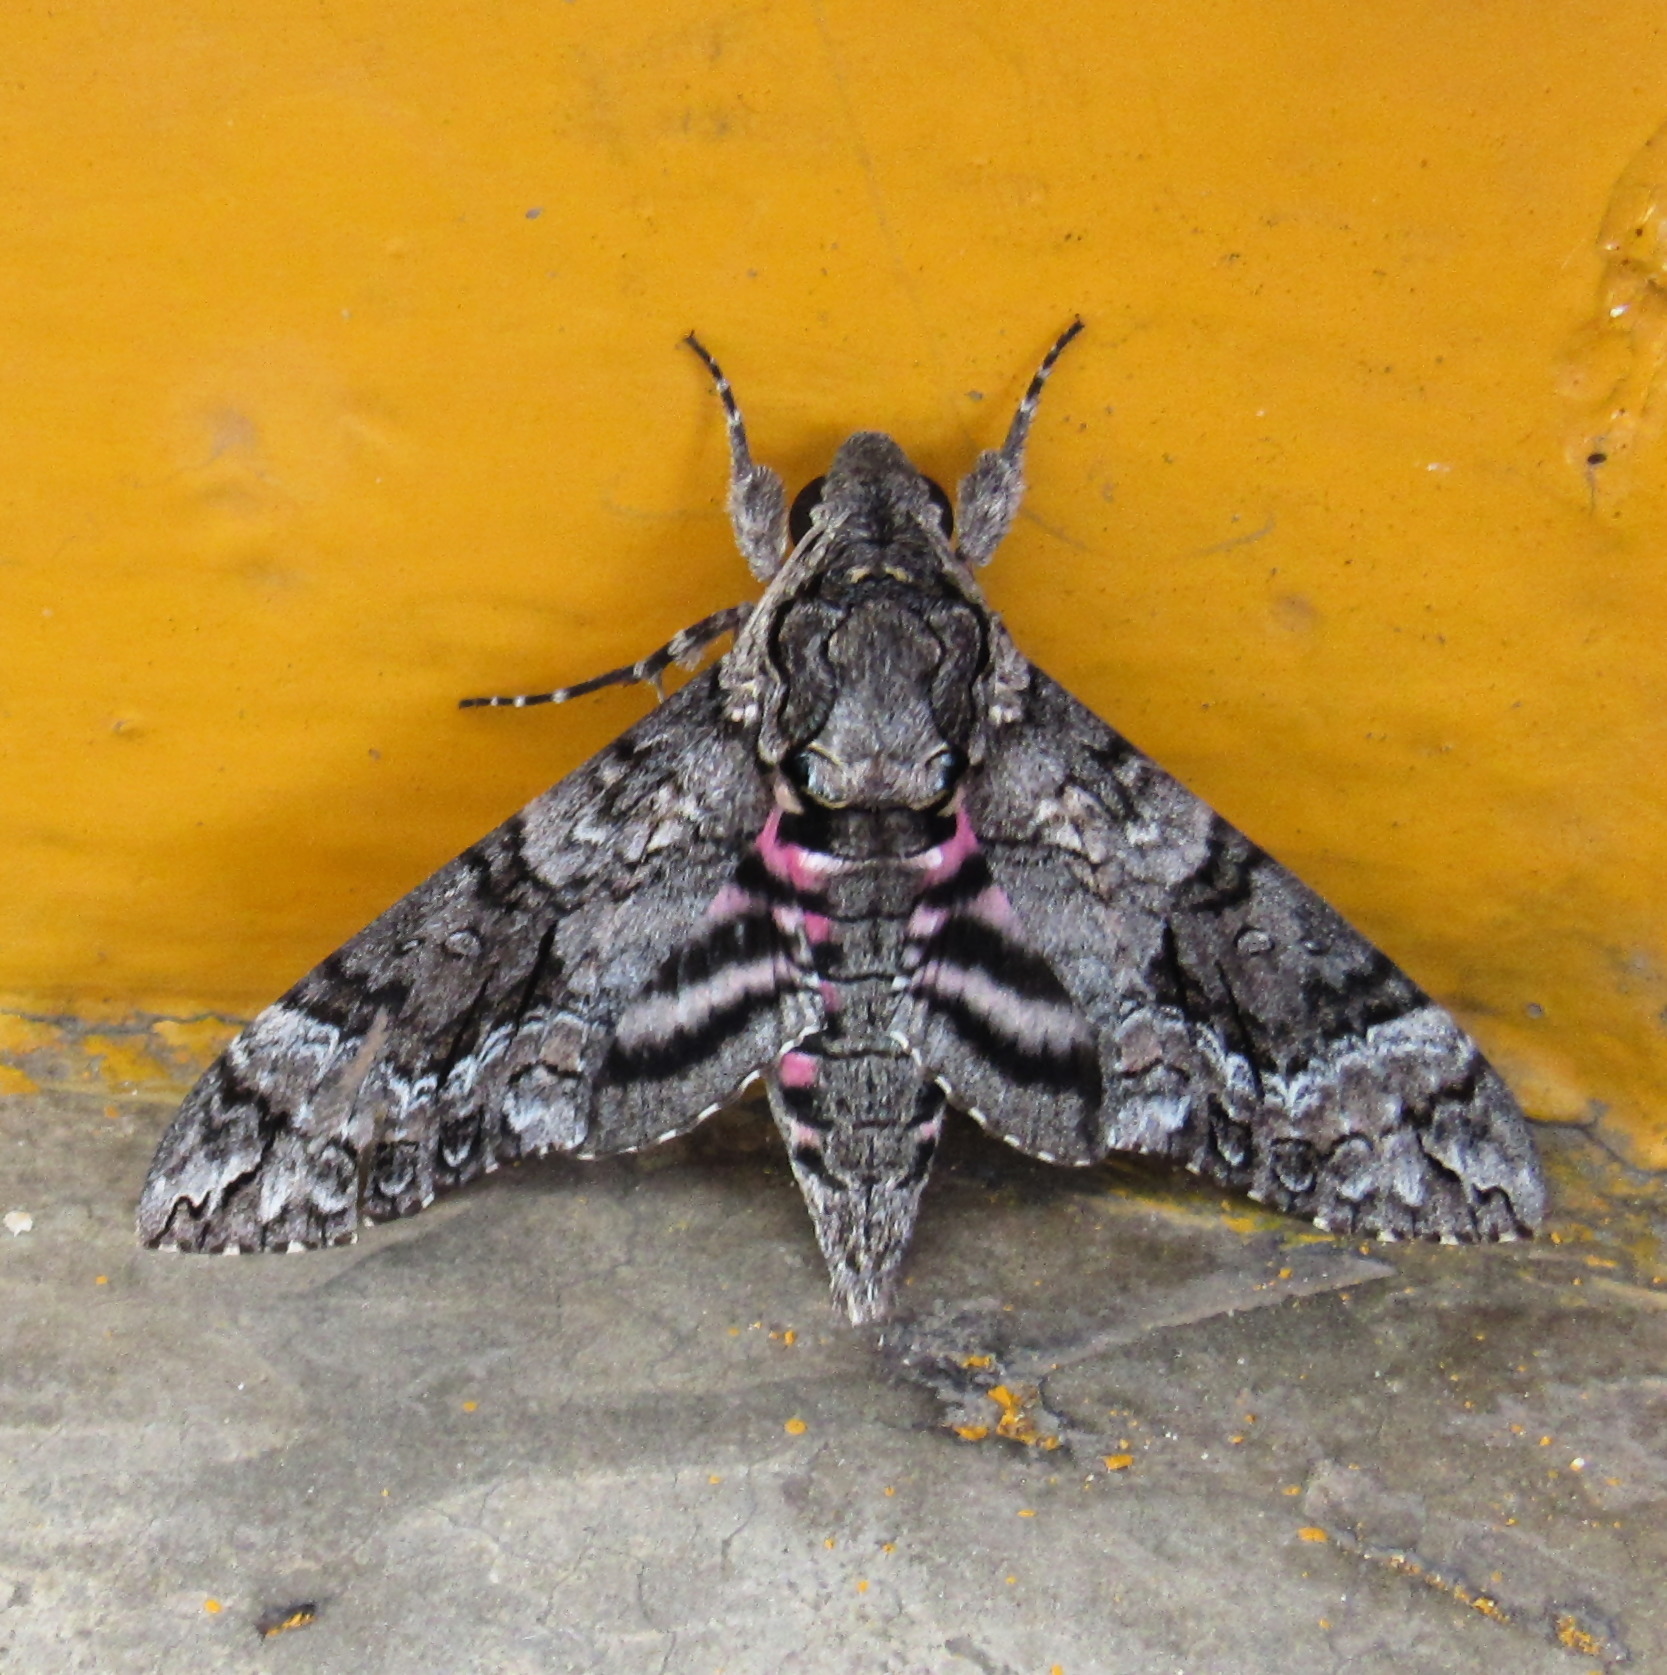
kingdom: Animalia
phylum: Arthropoda
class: Insecta
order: Lepidoptera
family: Sphingidae
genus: Agrius
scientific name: Agrius cingulata
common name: Pink-spotted hawkmoth
